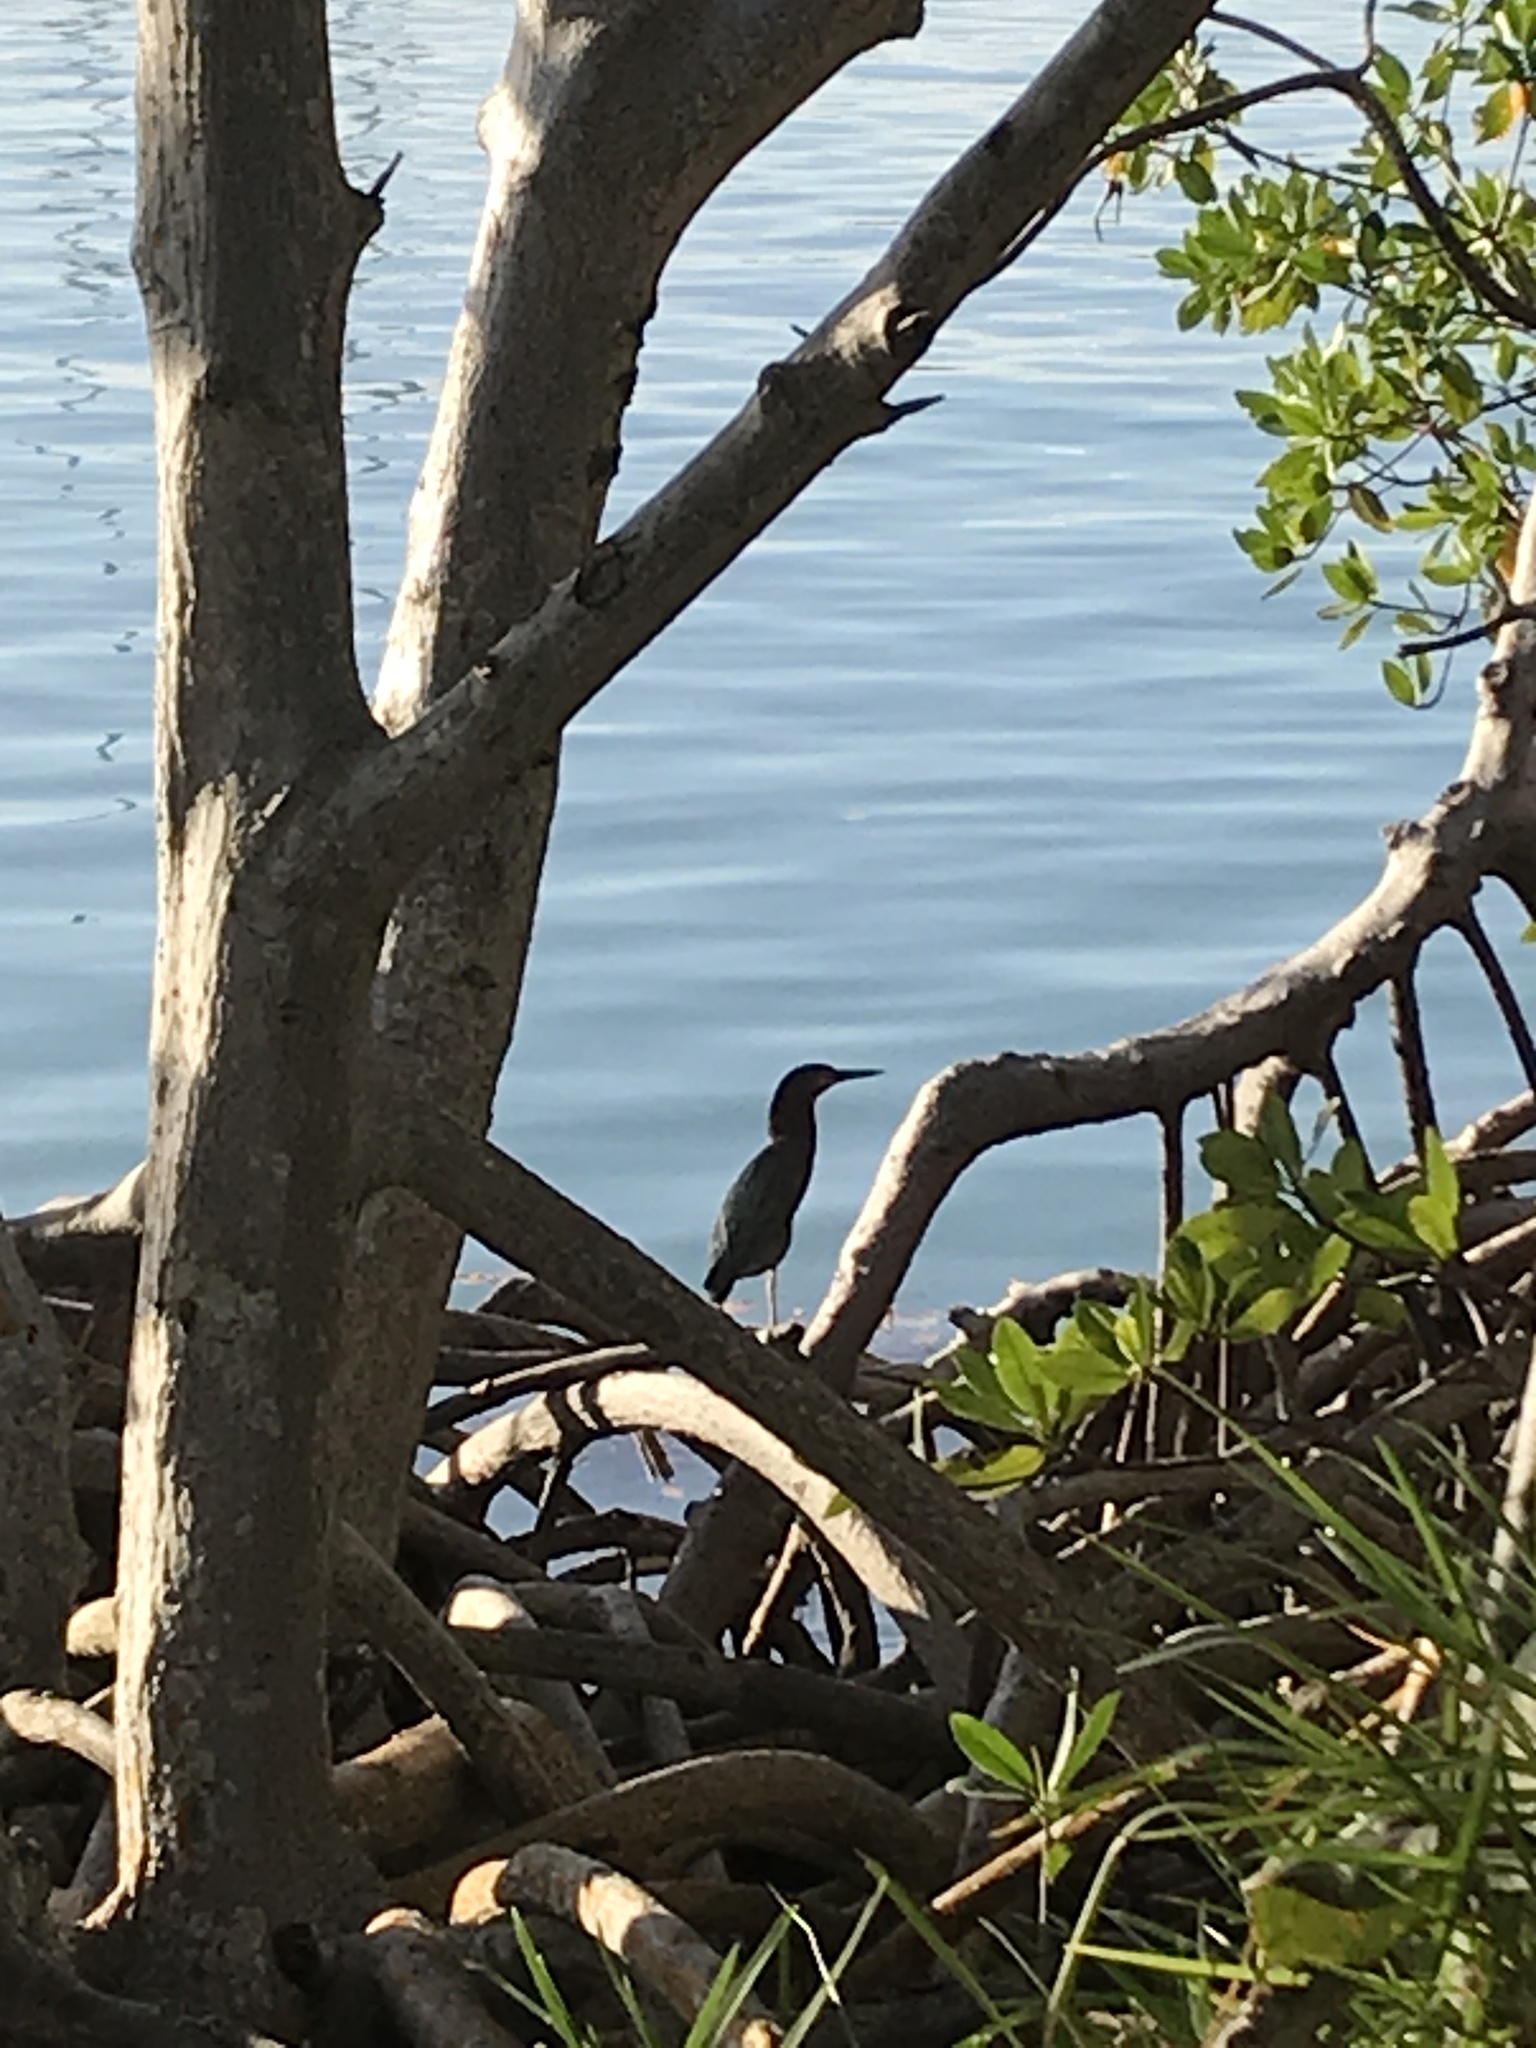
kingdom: Animalia
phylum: Chordata
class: Aves
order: Pelecaniformes
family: Ardeidae
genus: Butorides
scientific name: Butorides virescens
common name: Green heron
